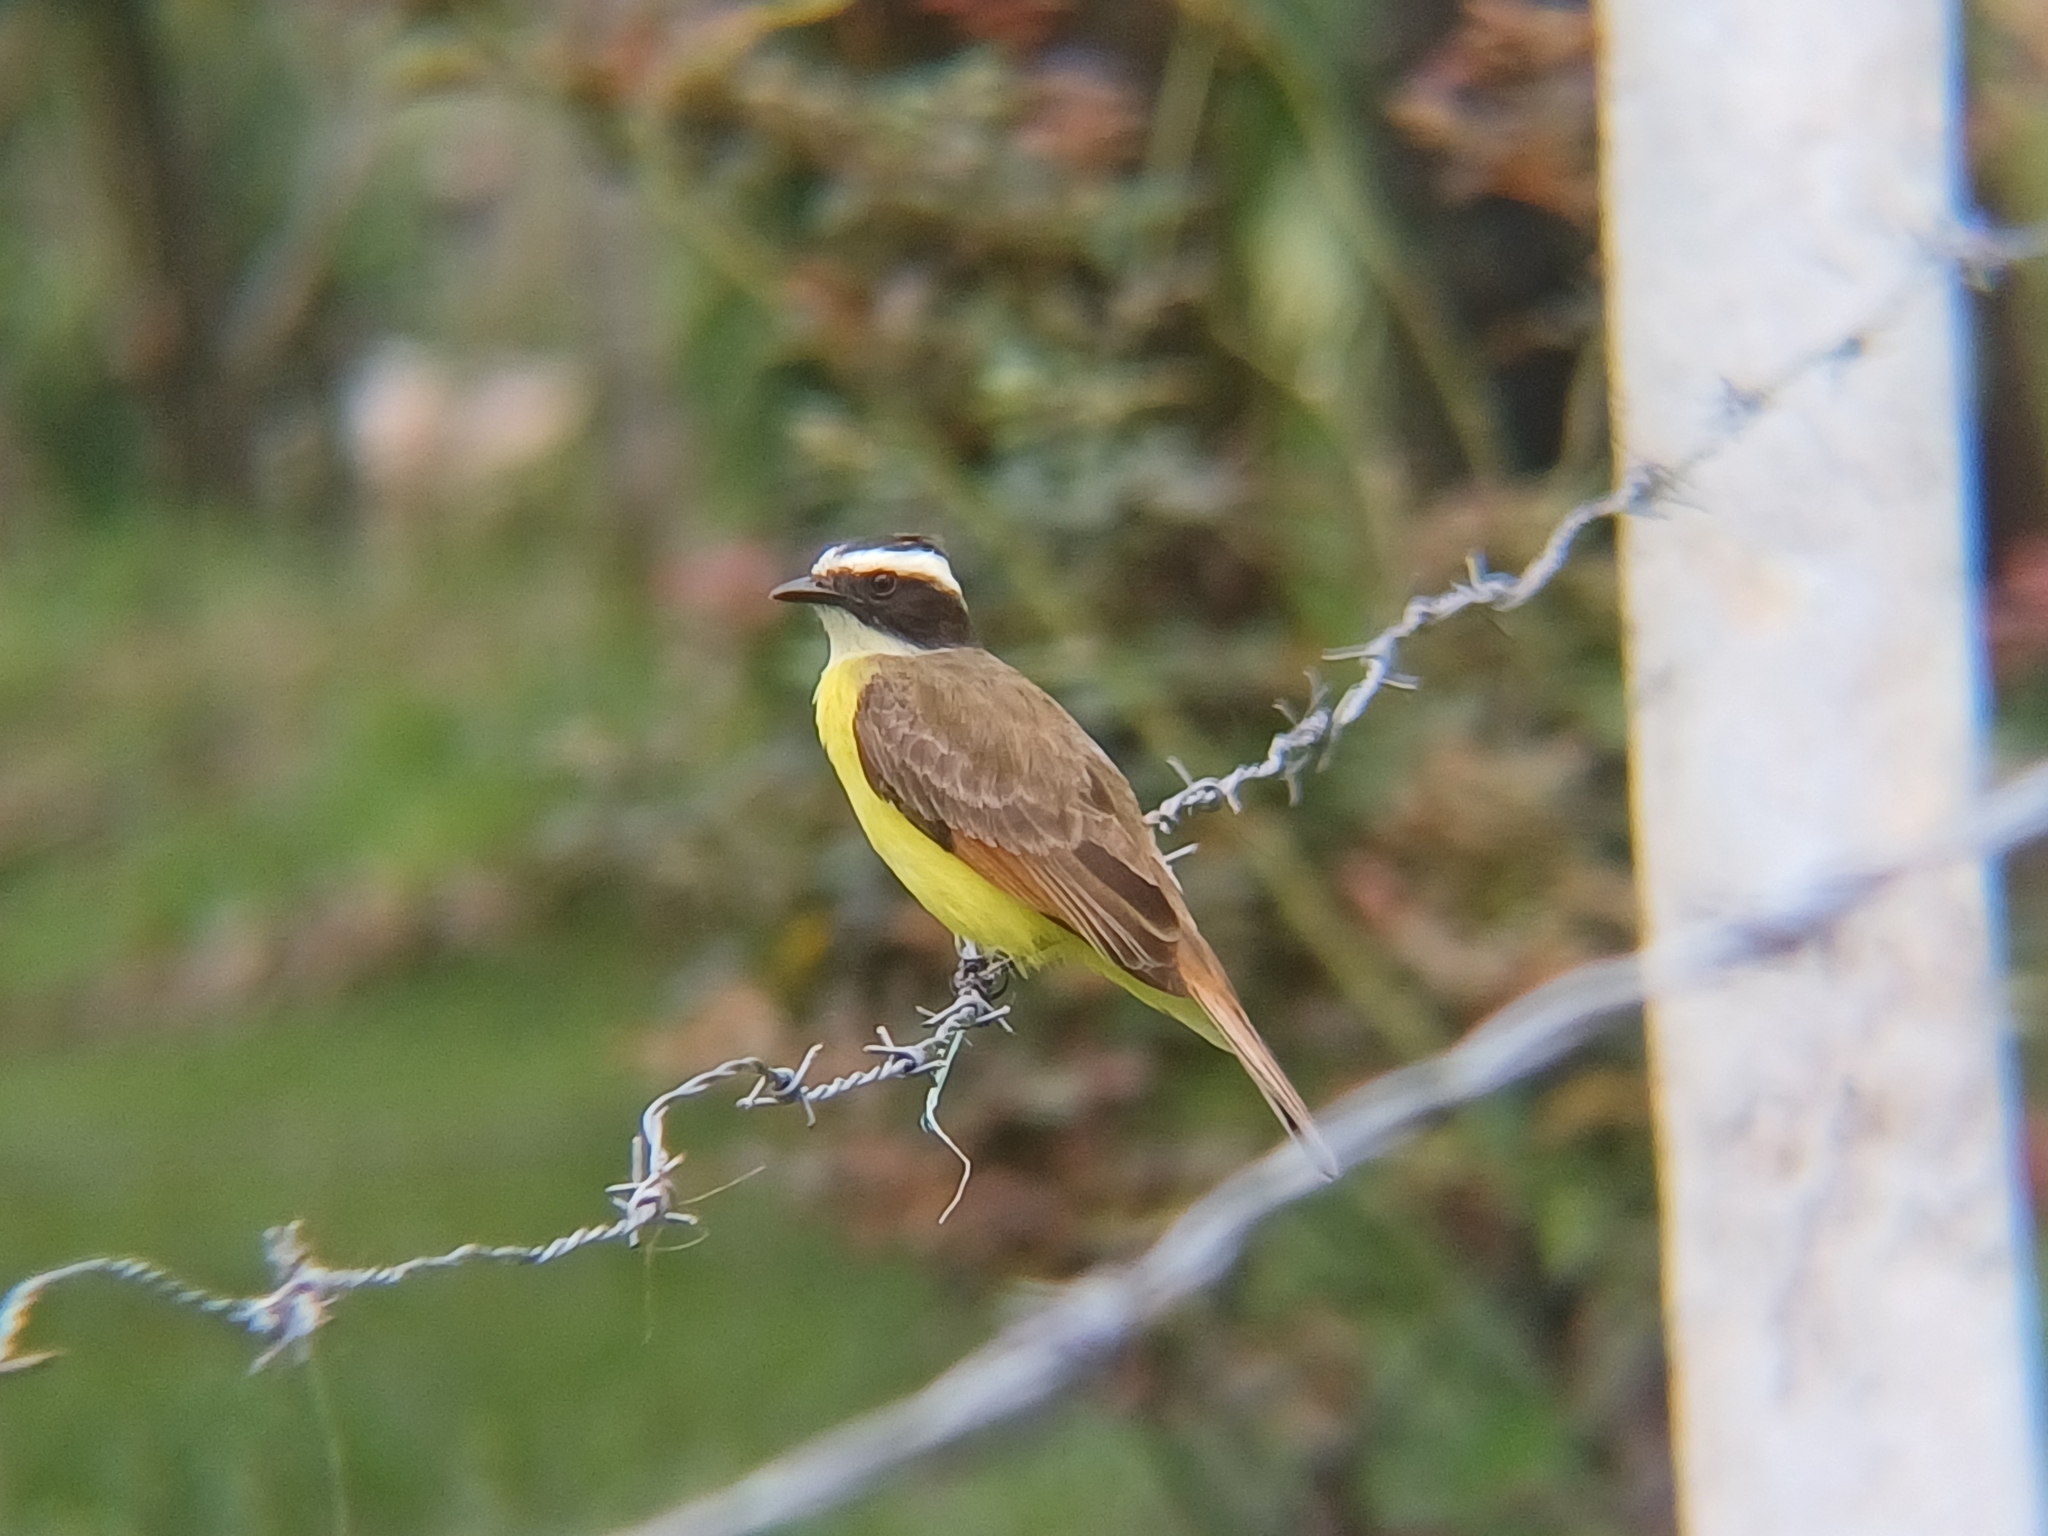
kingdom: Animalia
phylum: Chordata
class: Aves
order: Passeriformes
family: Tyrannidae
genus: Myiozetetes
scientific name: Myiozetetes cayanensis
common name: Rusty-margined flycatcher
